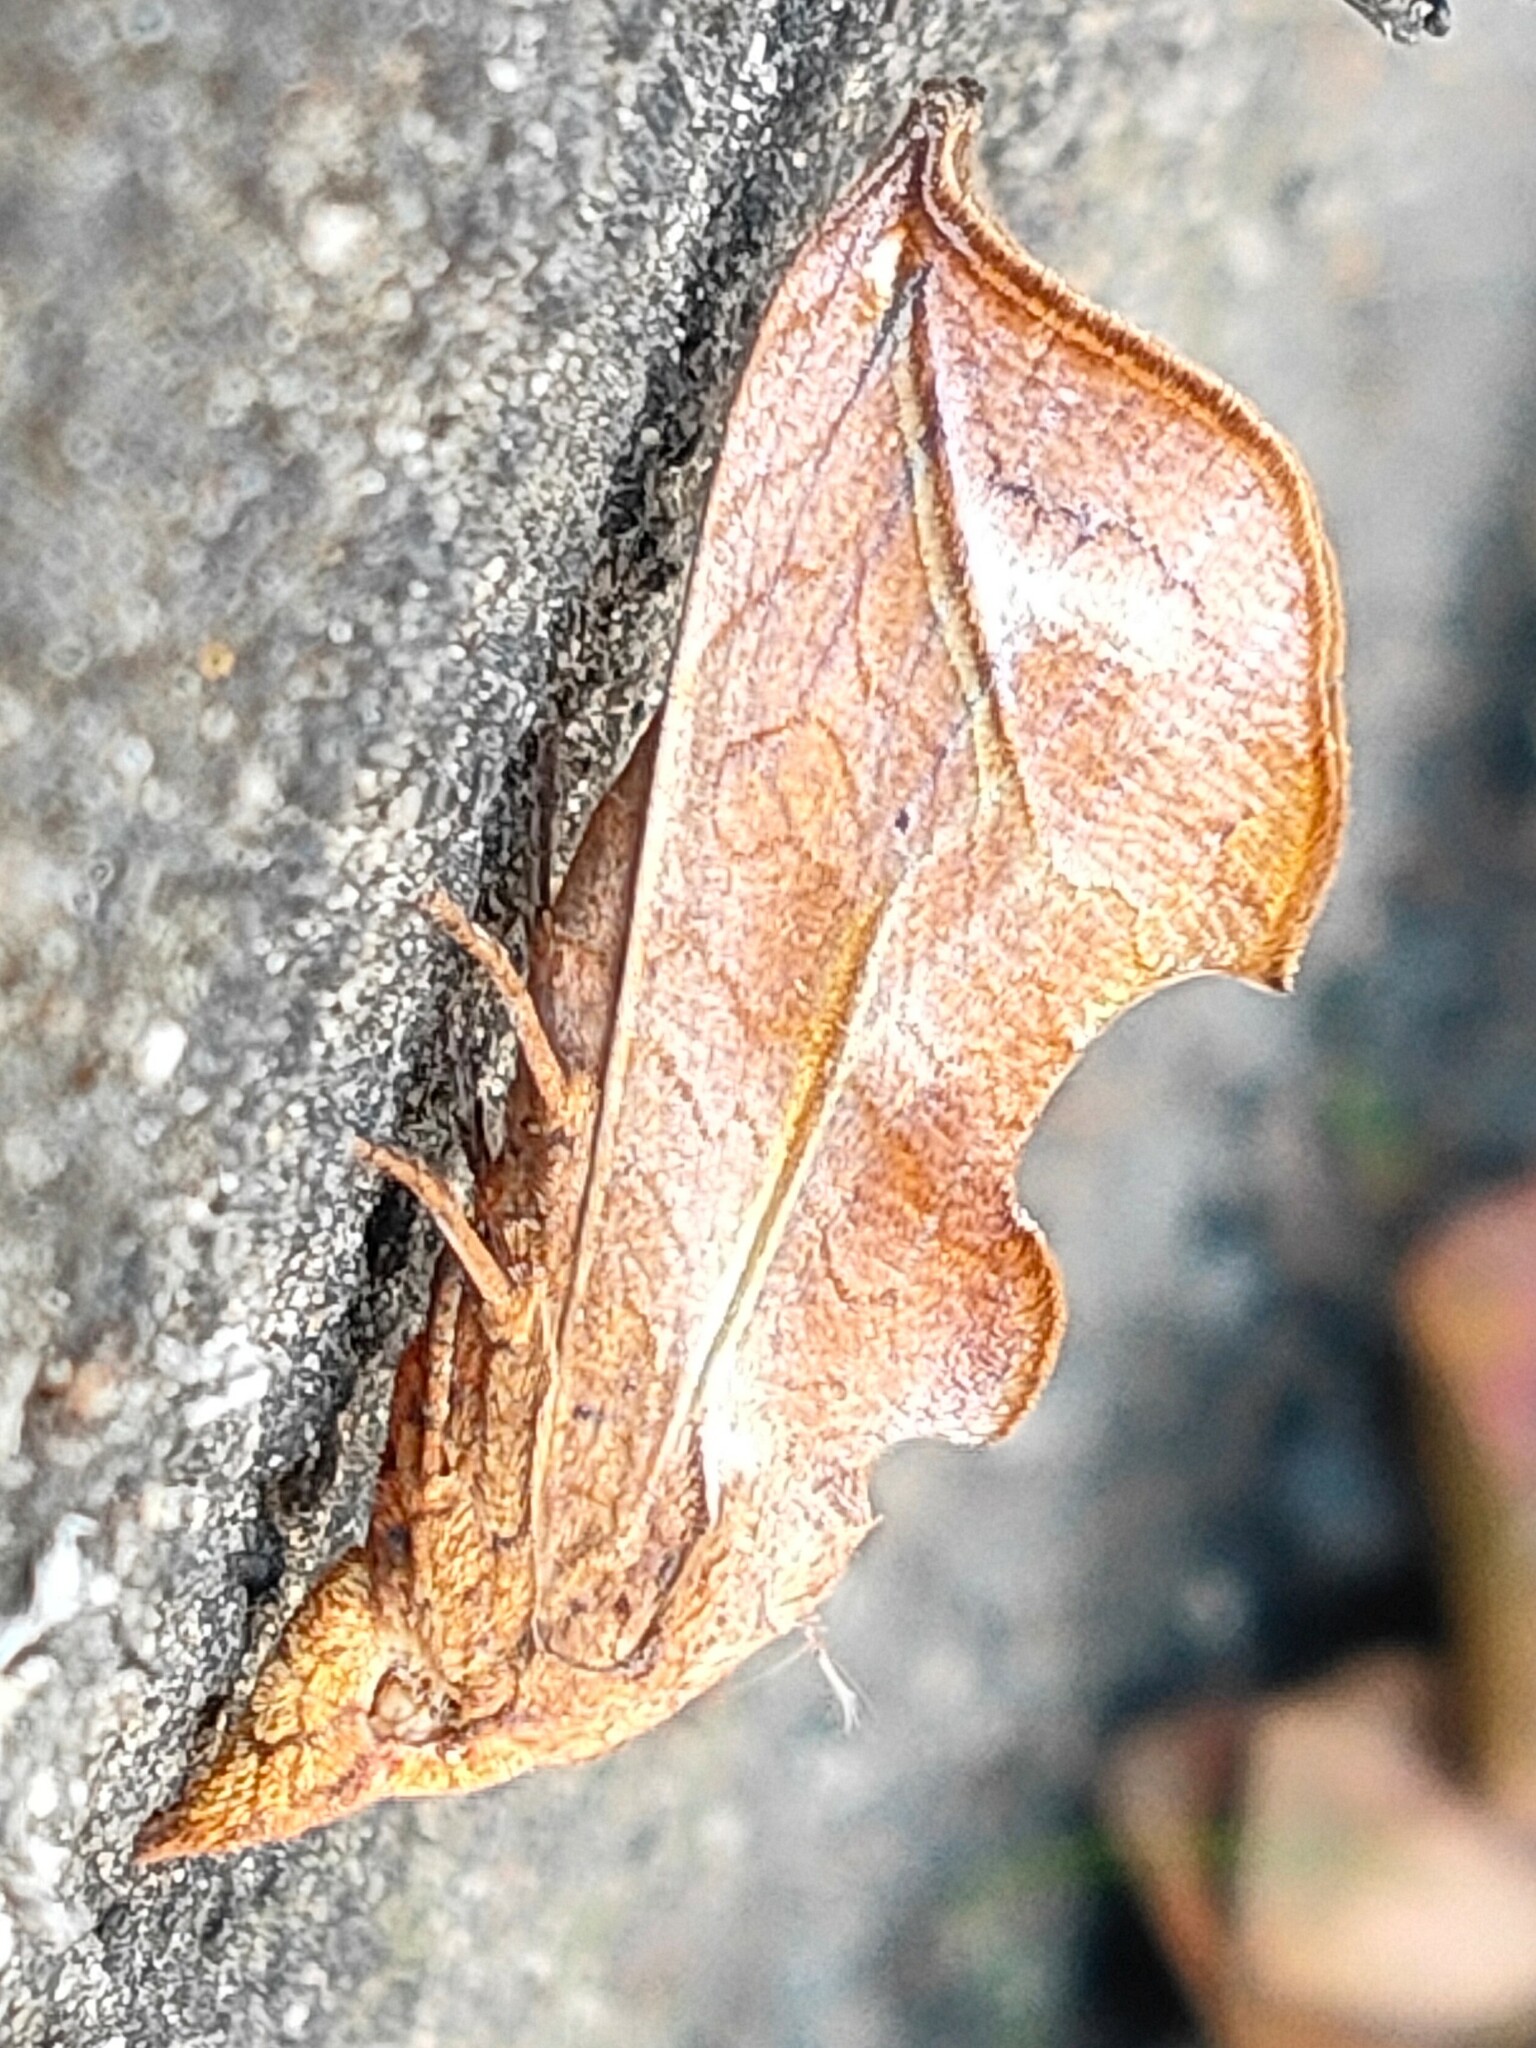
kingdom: Animalia
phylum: Arthropoda
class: Insecta
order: Lepidoptera
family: Erebidae
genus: Oraesia
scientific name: Oraesia excavata
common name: Moth
